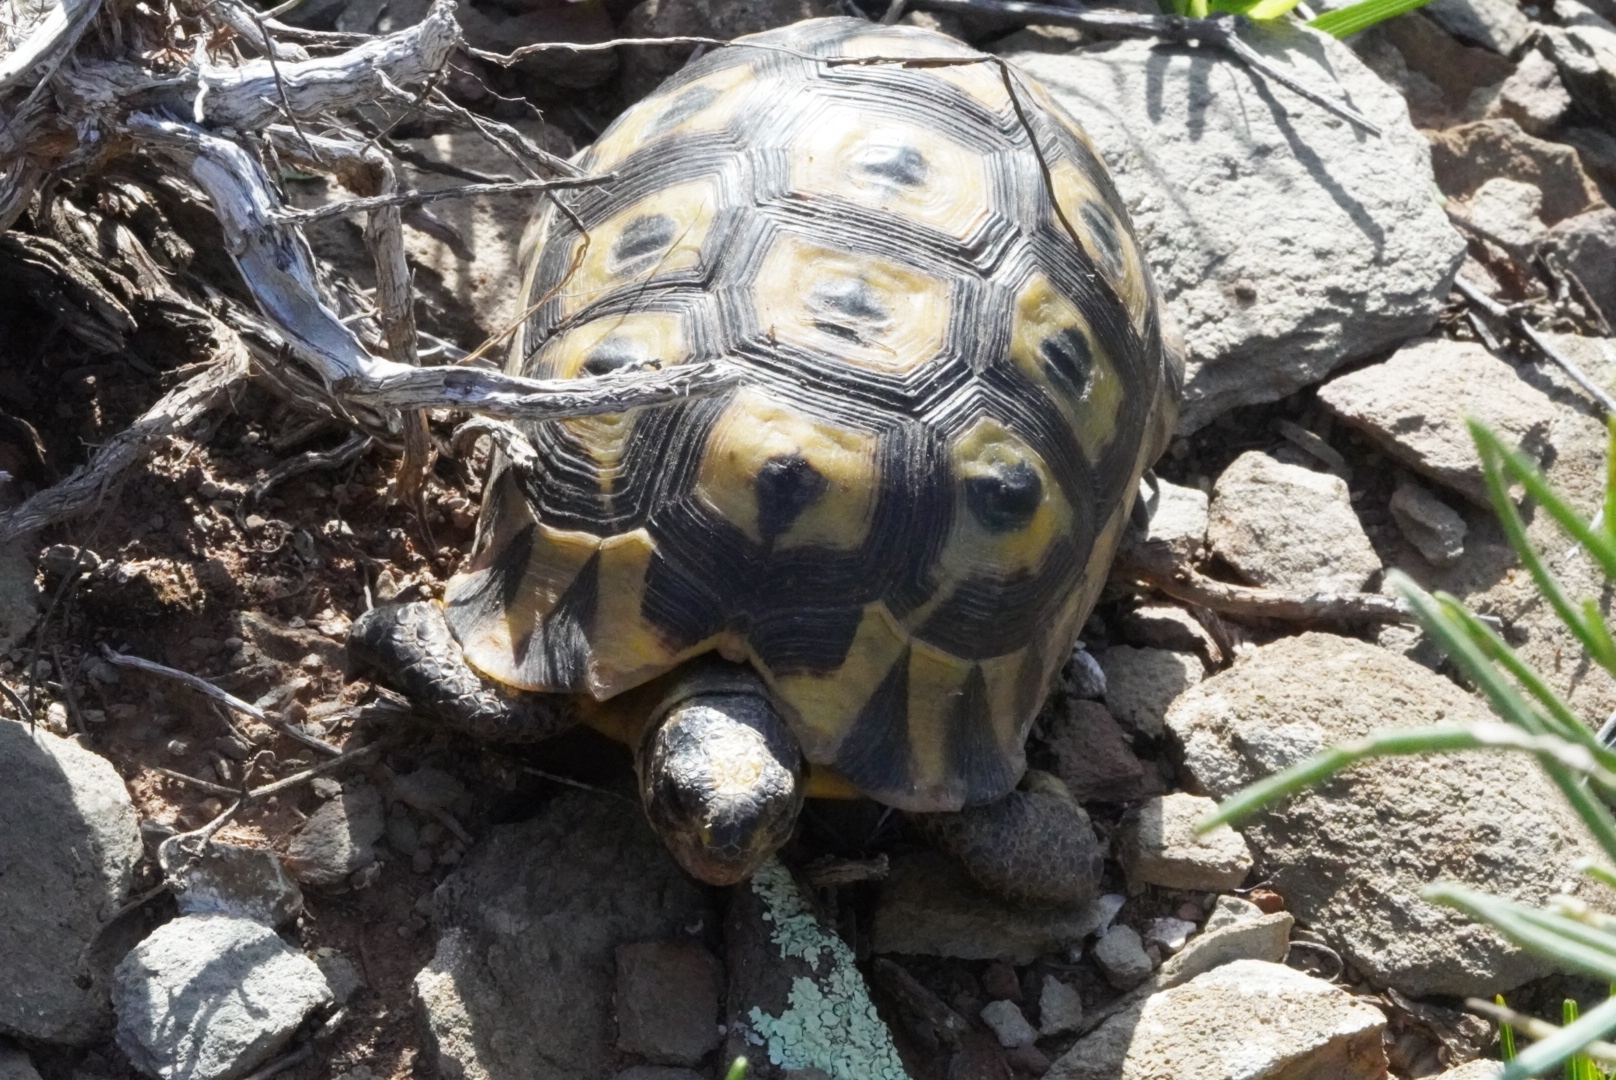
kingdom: Animalia
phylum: Chordata
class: Testudines
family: Testudinidae
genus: Chersina
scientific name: Chersina angulata
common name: South african bowsprit tortoise
